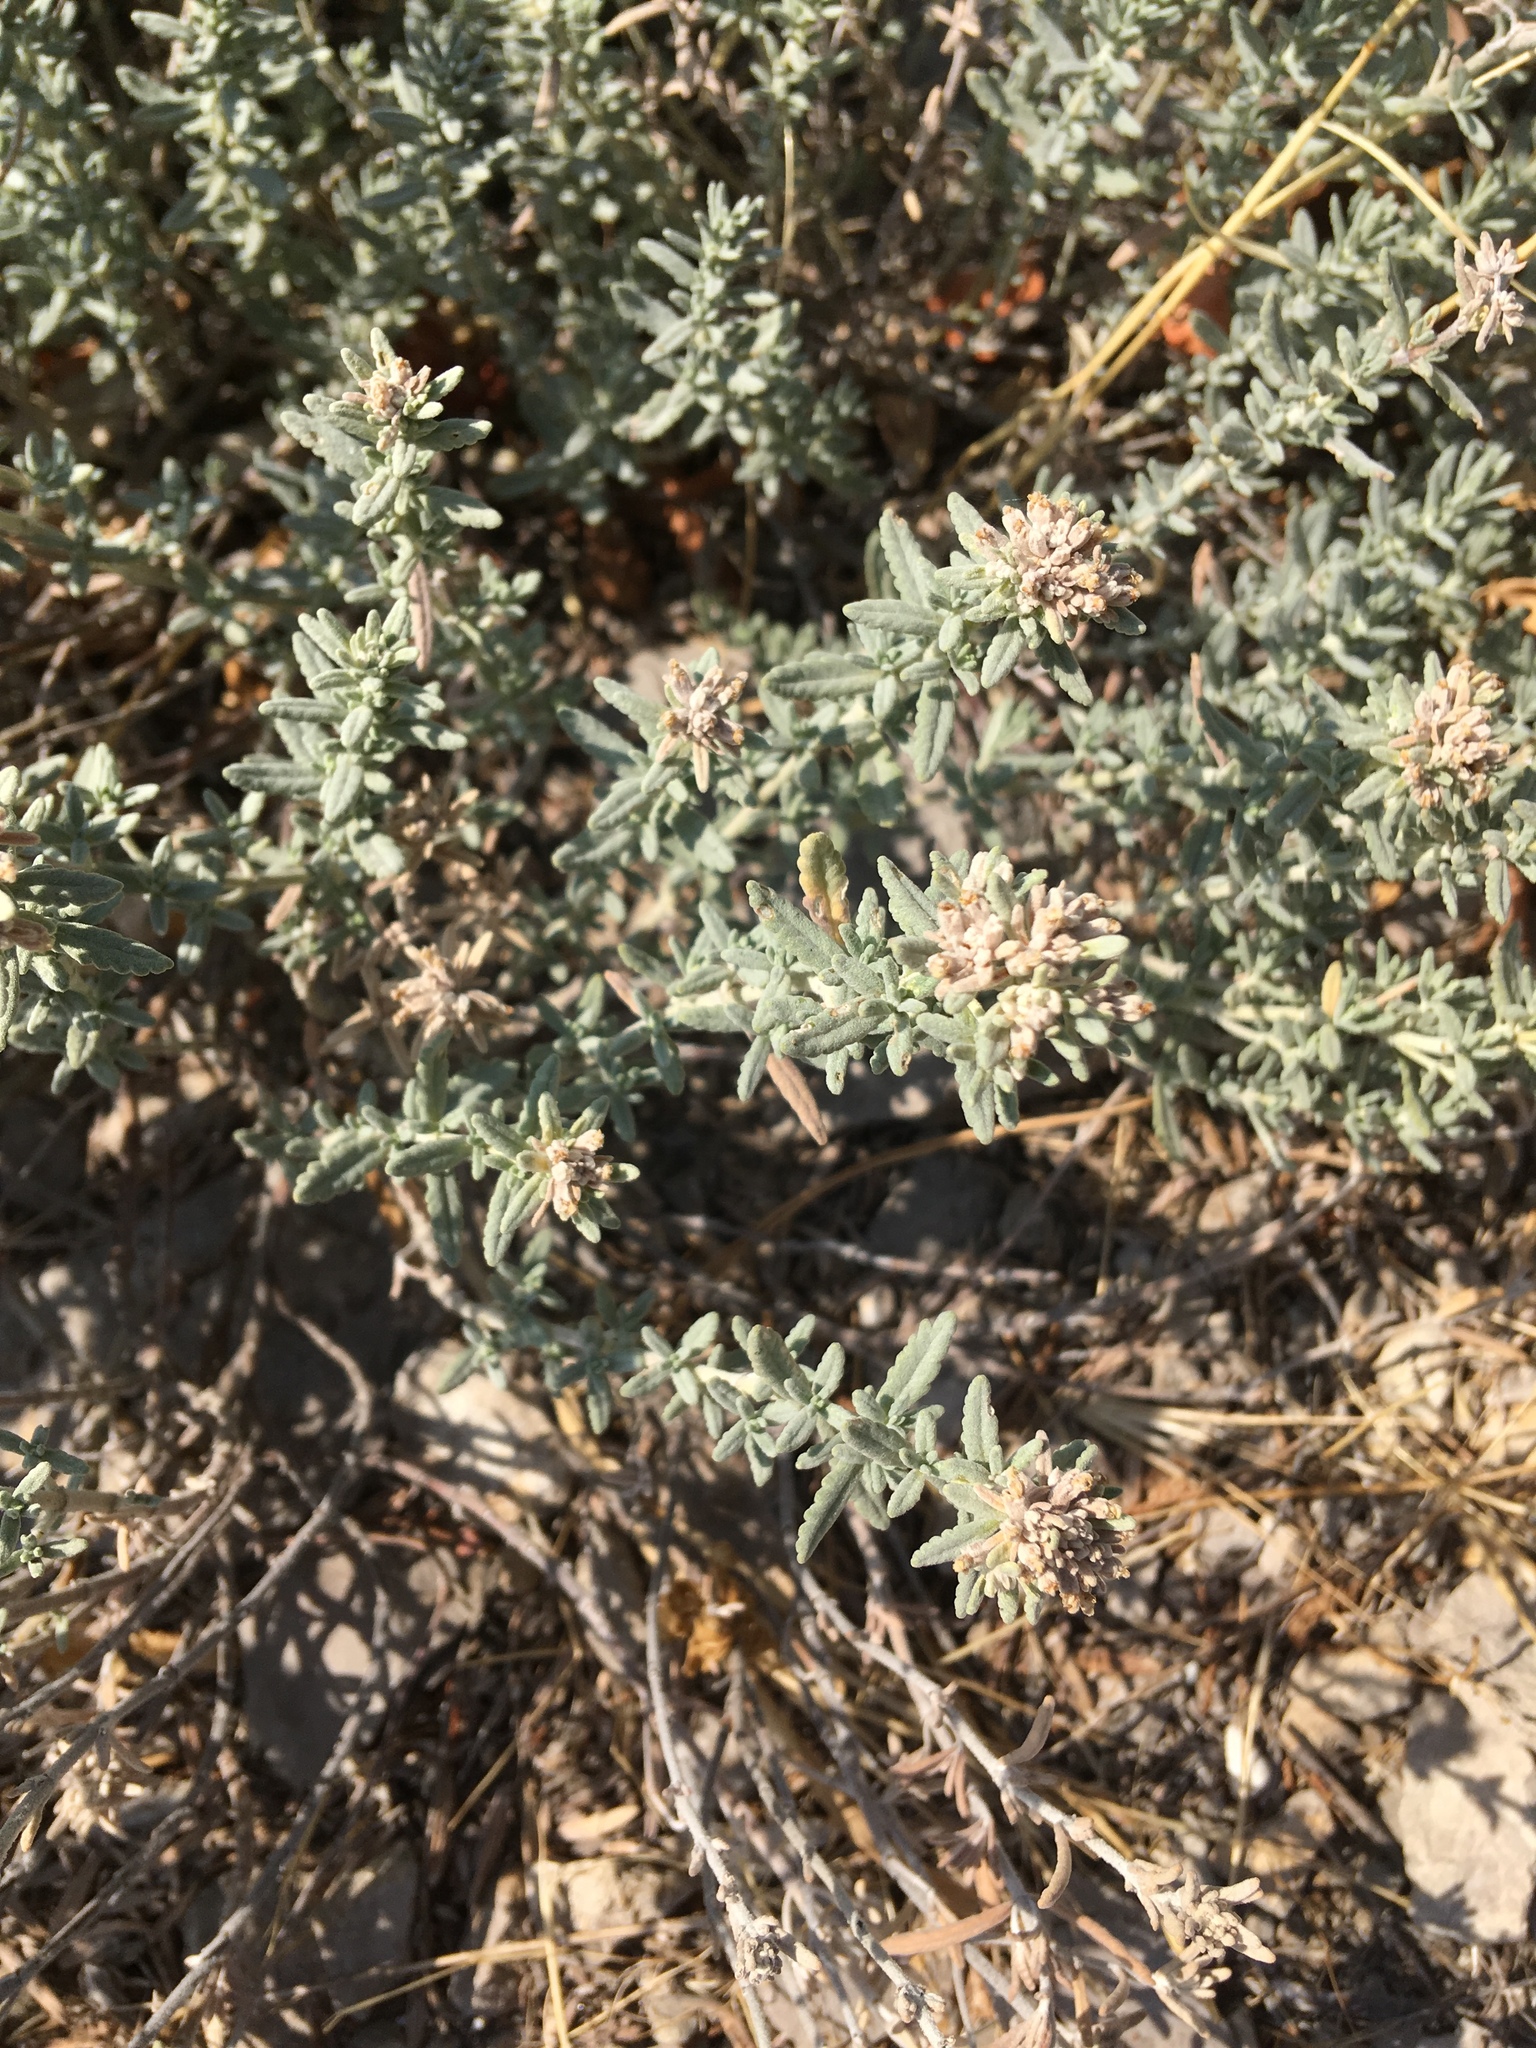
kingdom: Plantae
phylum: Tracheophyta
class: Magnoliopsida
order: Lamiales
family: Lamiaceae
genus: Teucrium
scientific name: Teucrium polium
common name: Poley
